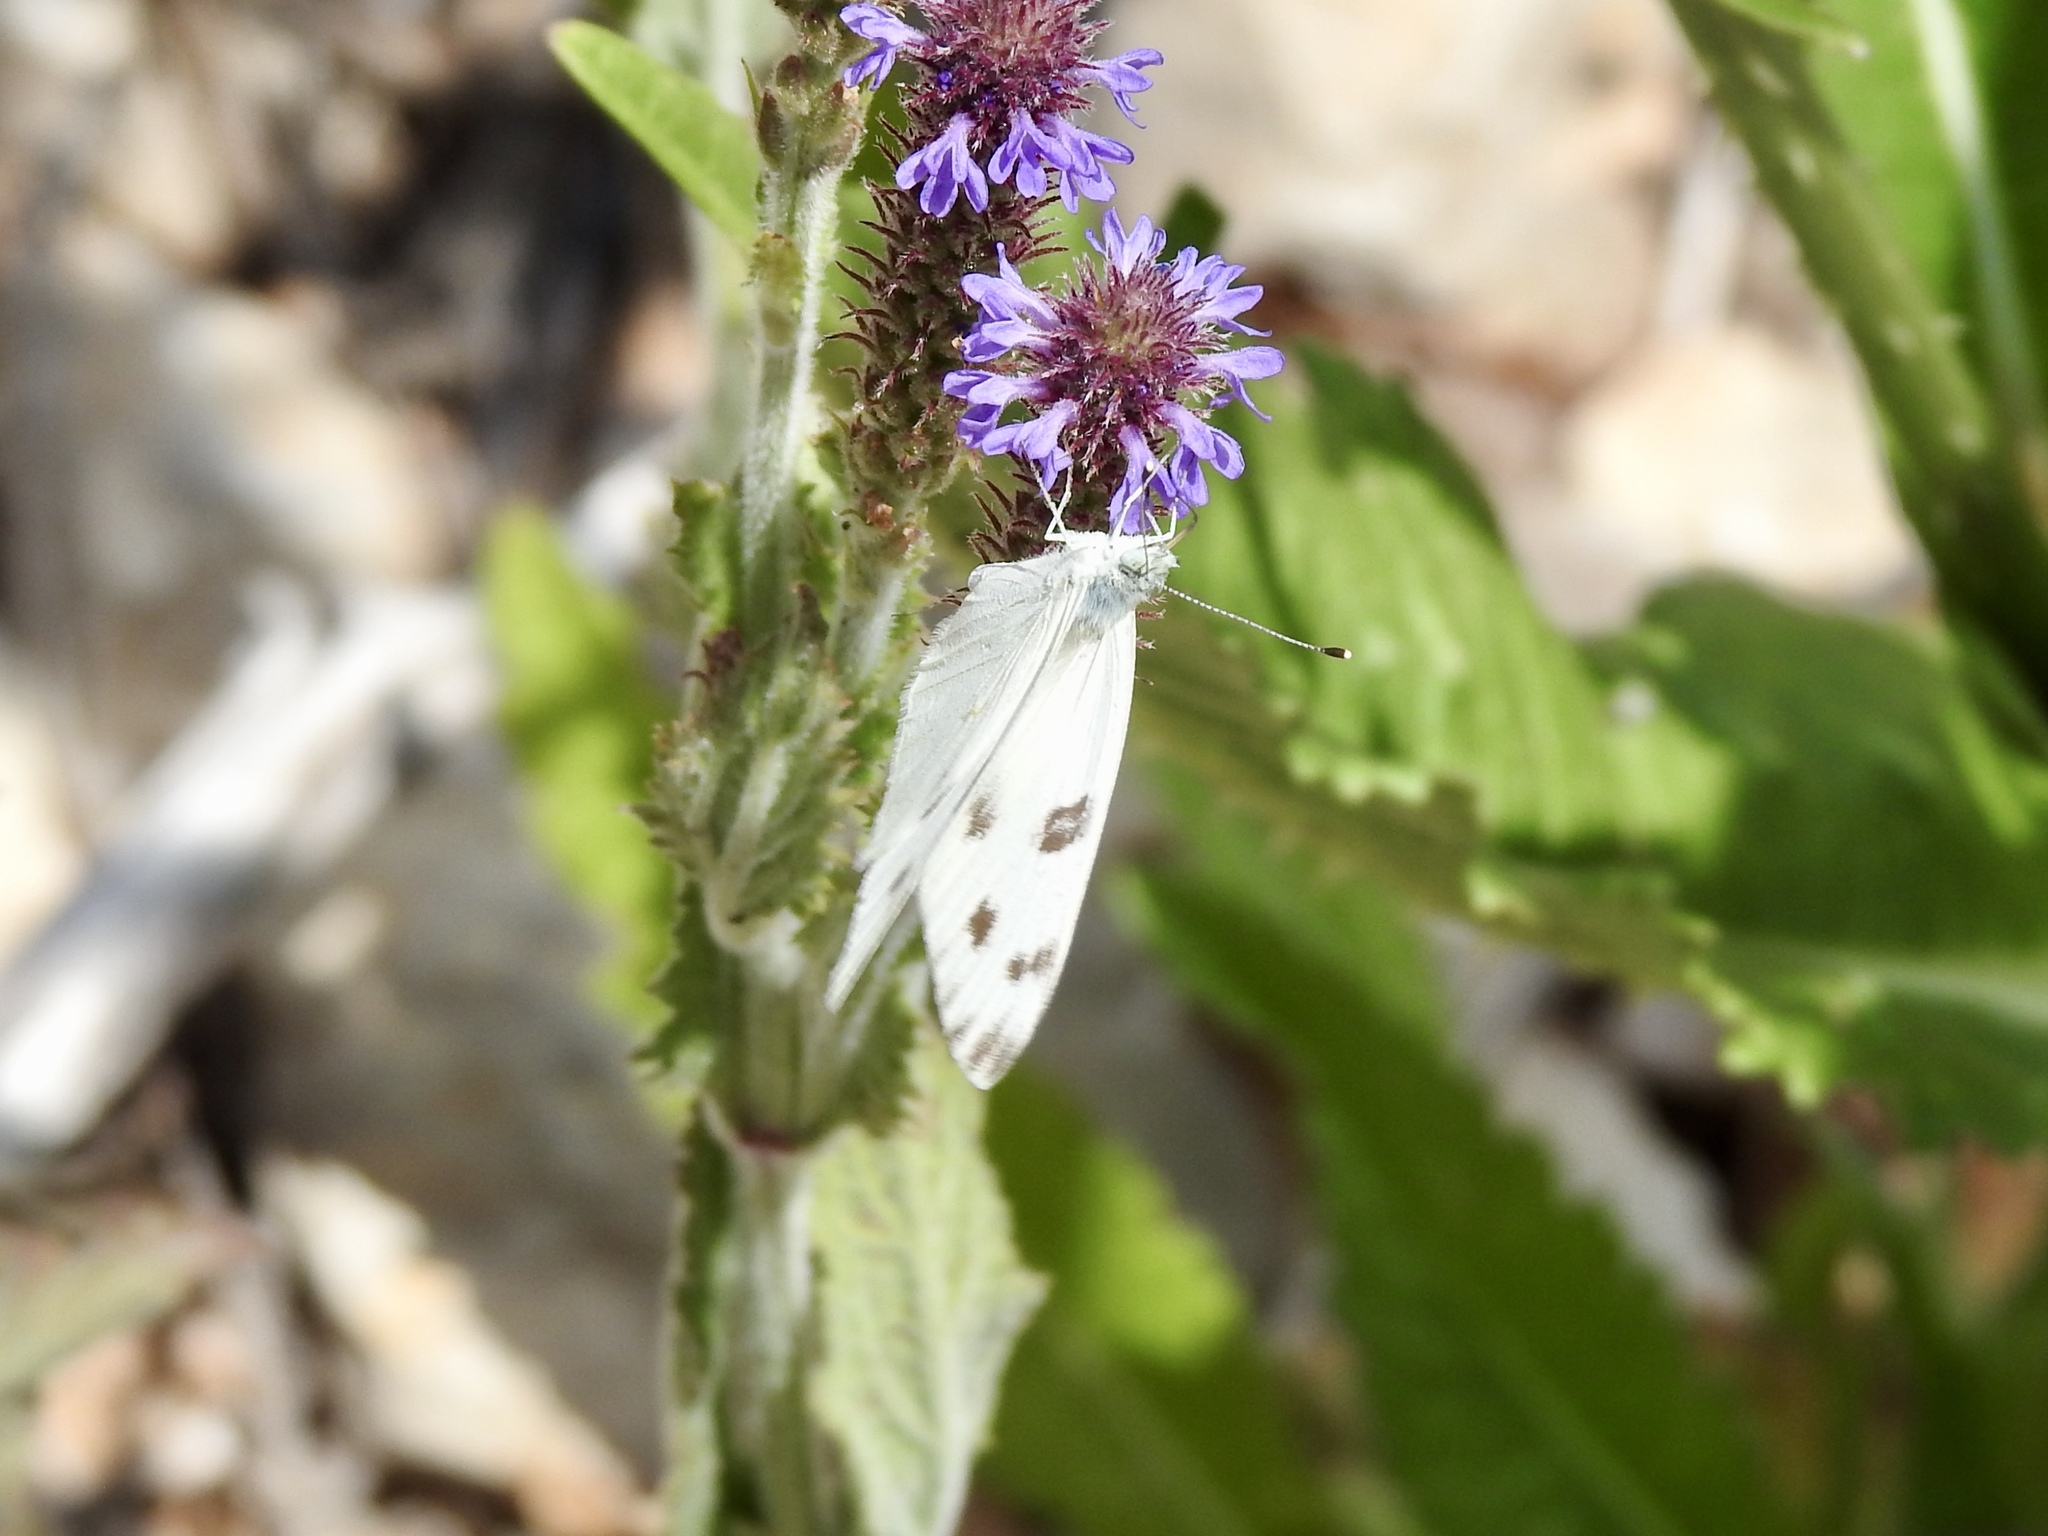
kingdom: Animalia
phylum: Arthropoda
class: Insecta
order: Lepidoptera
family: Pieridae
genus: Pontia
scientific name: Pontia protodice
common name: Checkered white
